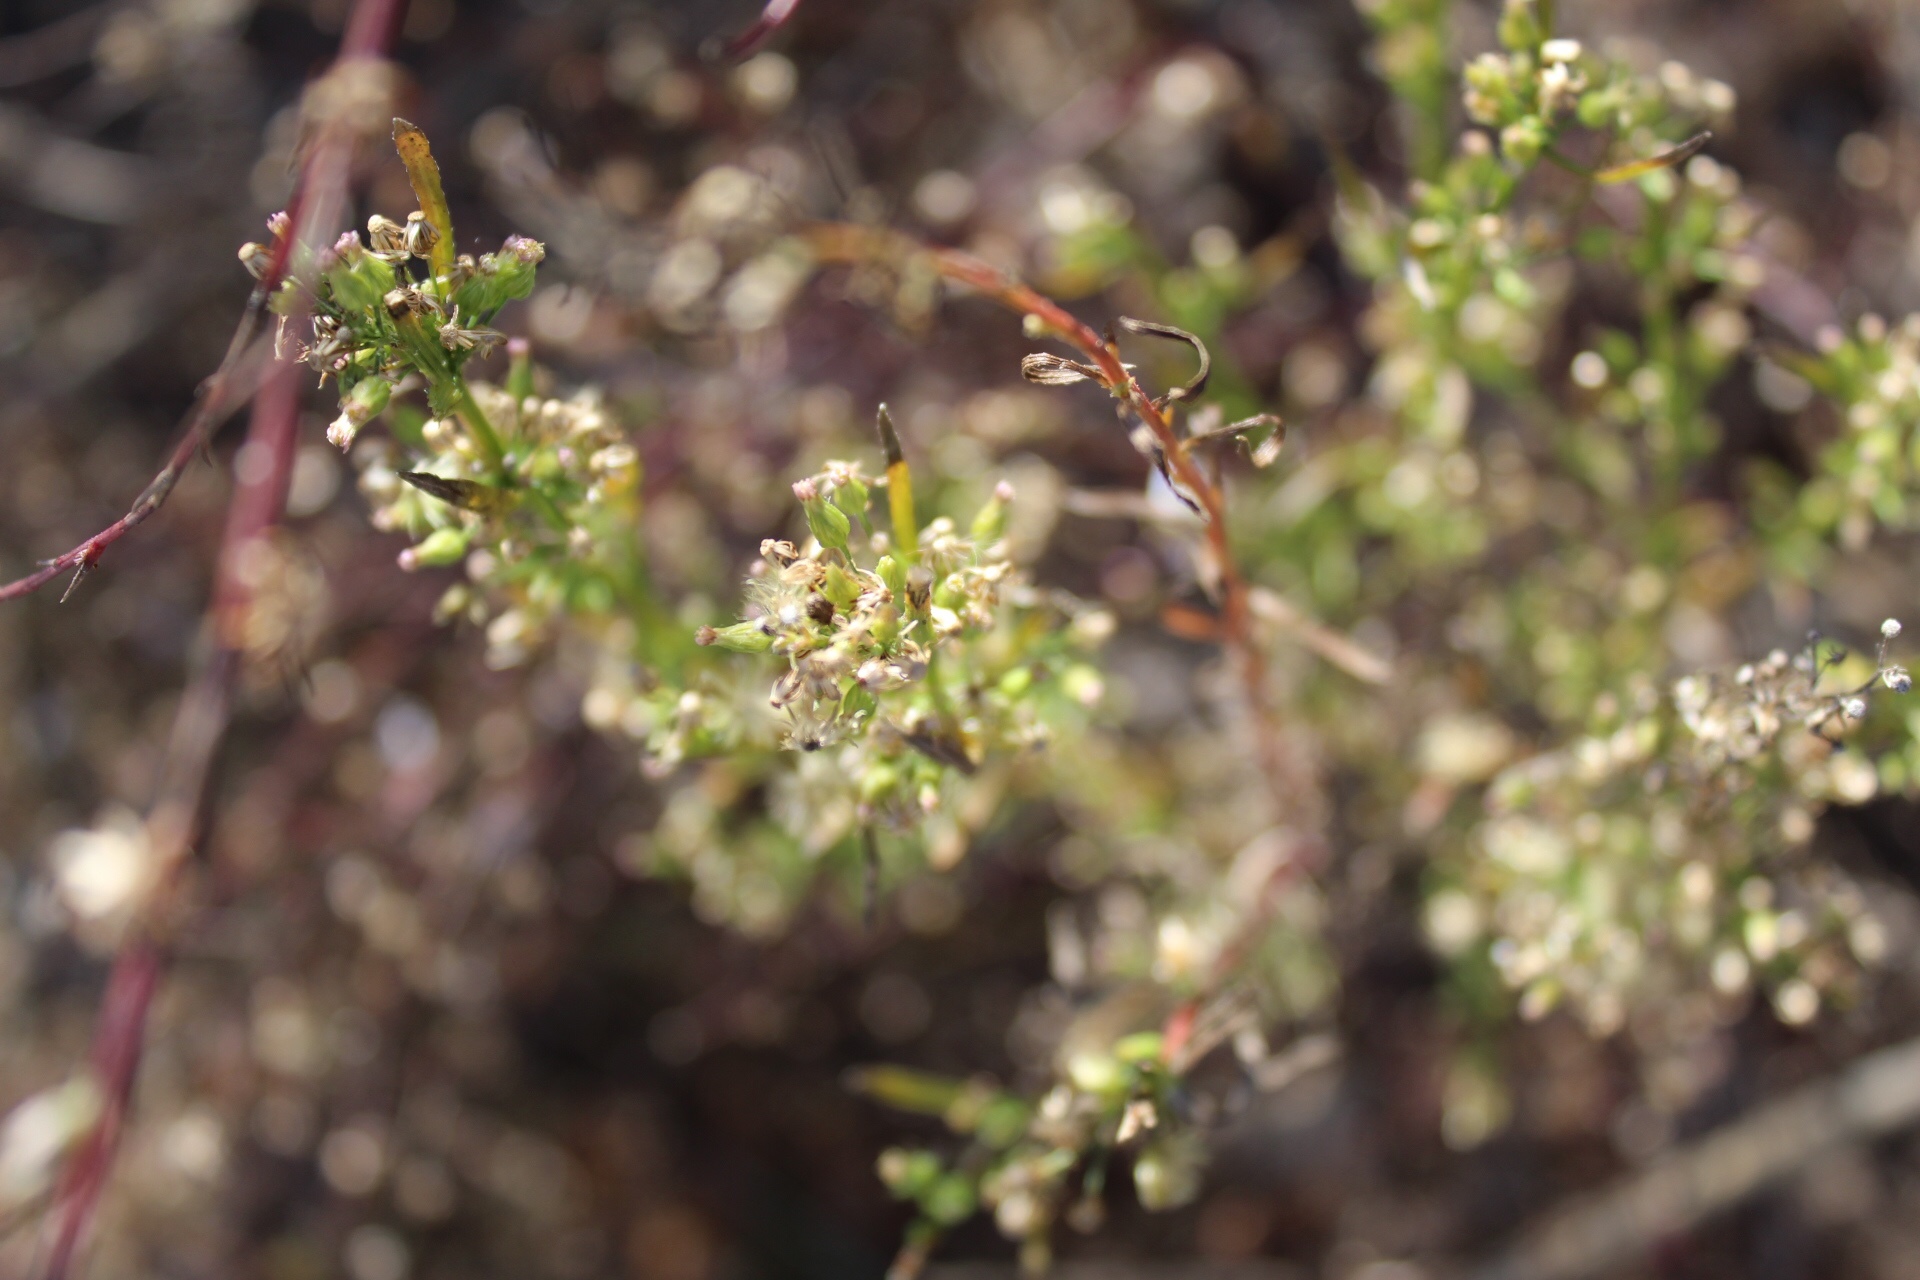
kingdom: Plantae
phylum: Tracheophyta
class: Magnoliopsida
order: Asterales
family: Asteraceae
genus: Erigeron
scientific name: Erigeron canadensis
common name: Canadian fleabane
